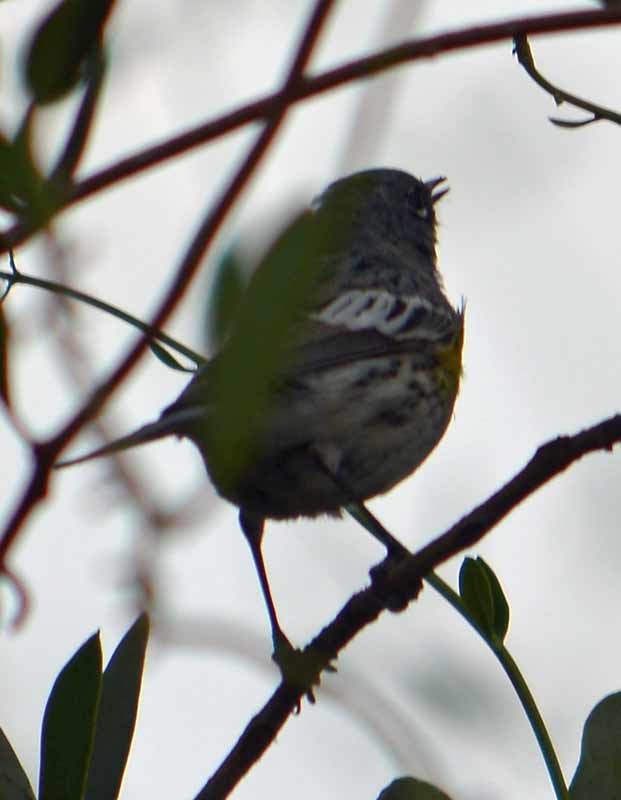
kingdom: Animalia
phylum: Chordata
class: Aves
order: Passeriformes
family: Parulidae
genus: Setophaga
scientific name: Setophaga coronata
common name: Myrtle warbler
